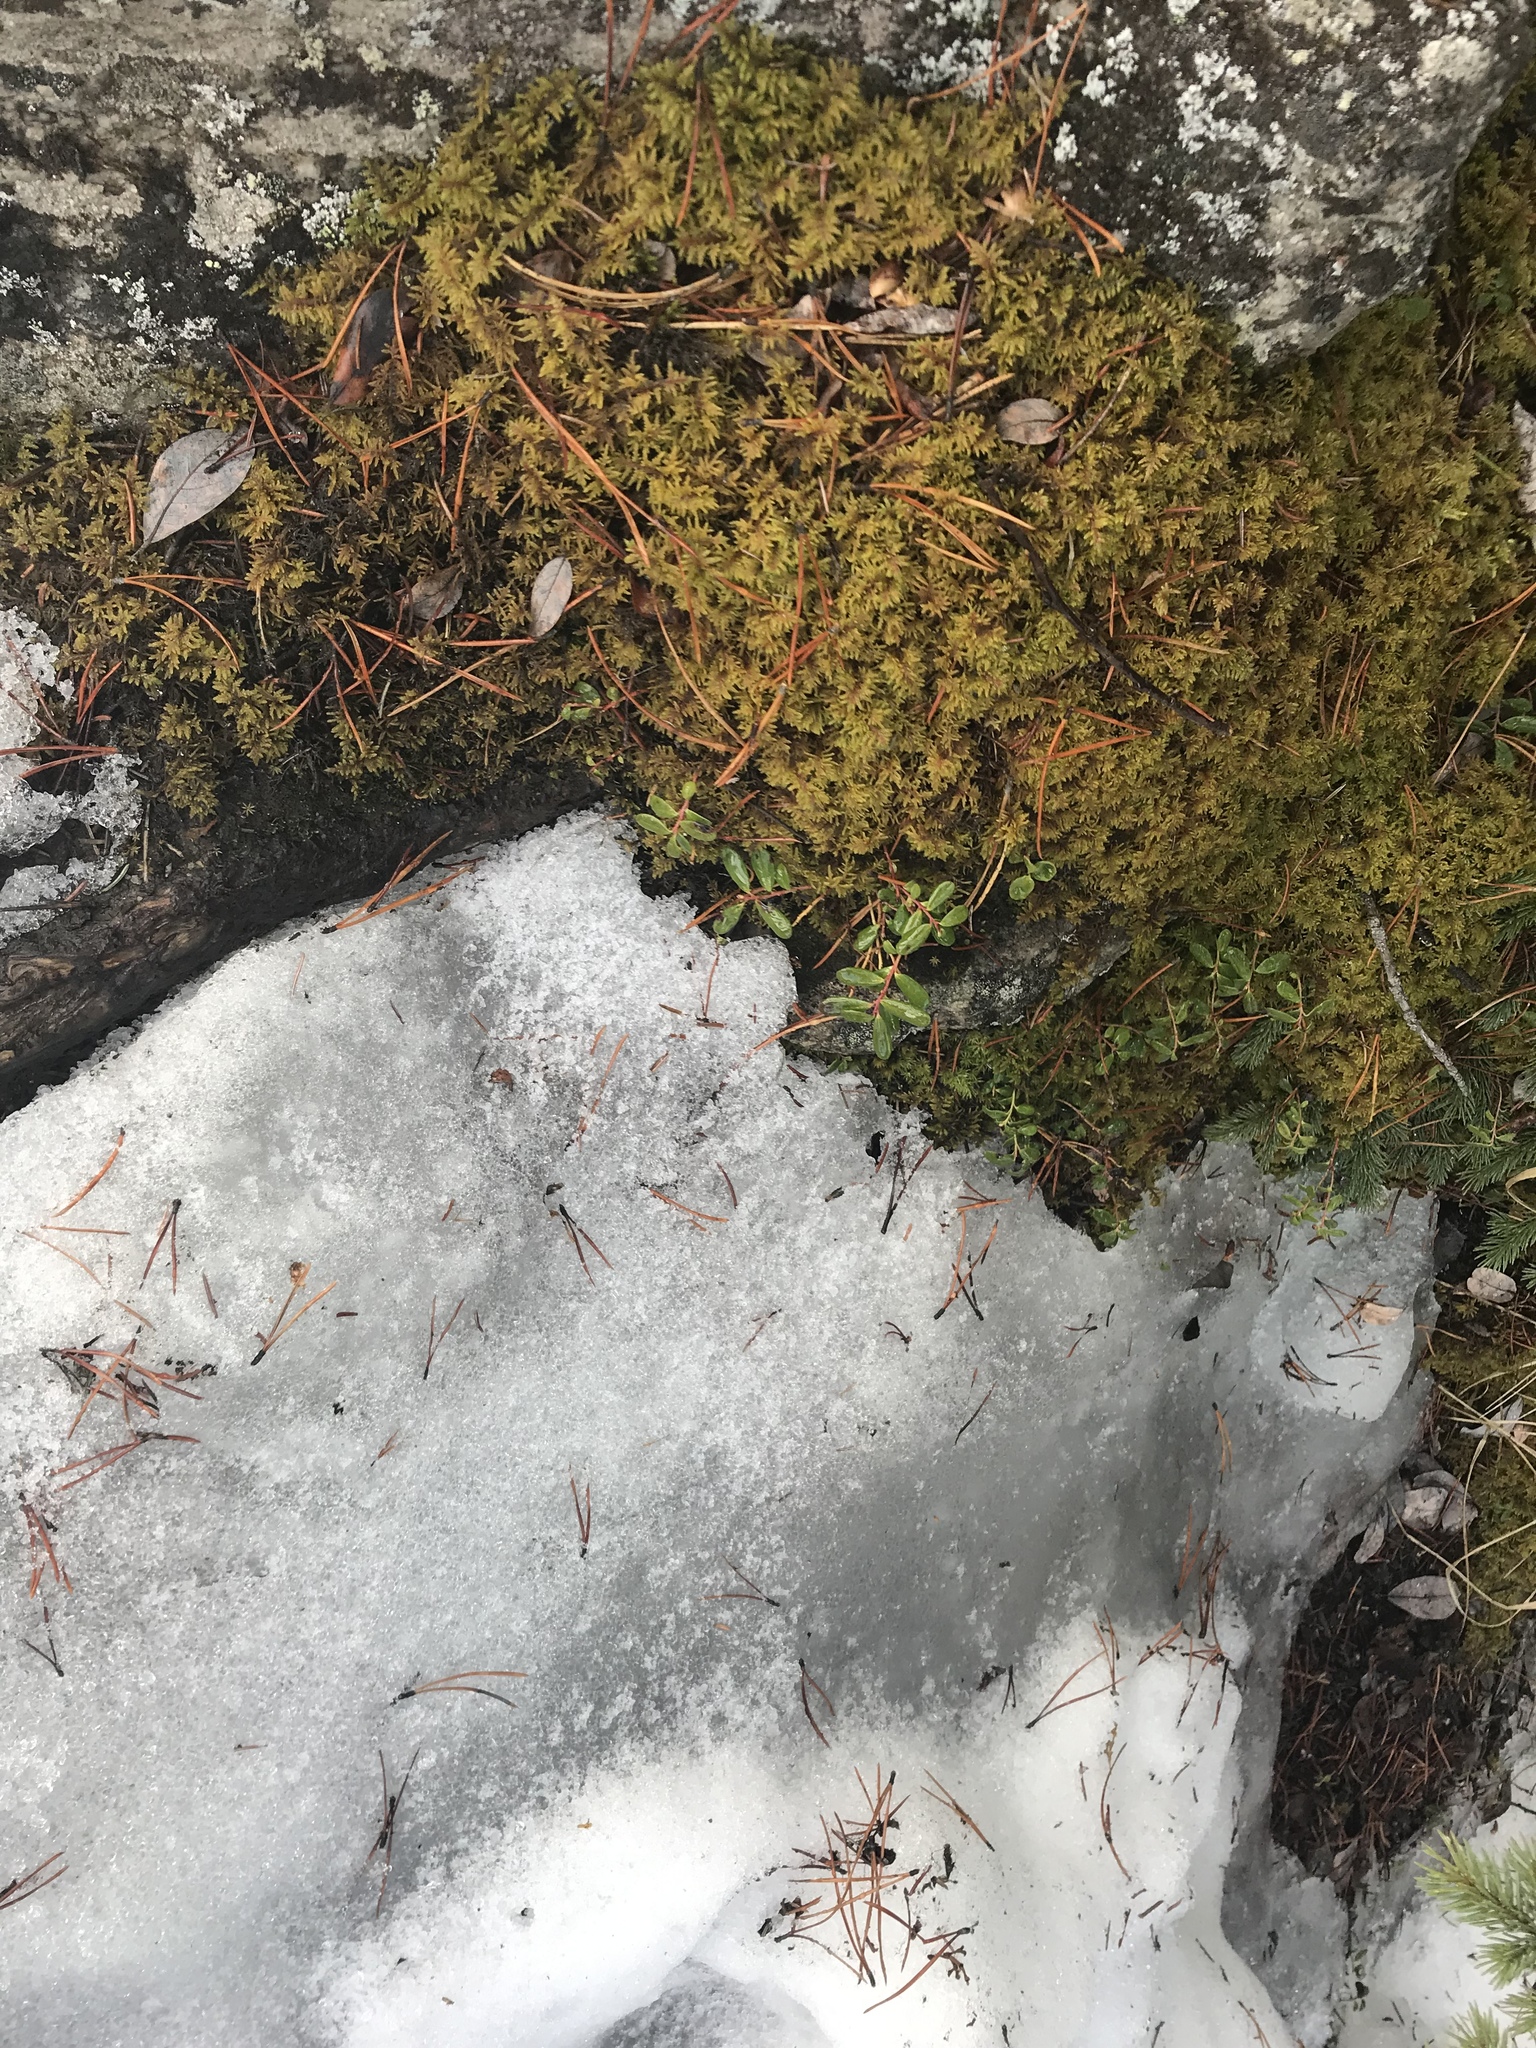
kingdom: Plantae
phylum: Tracheophyta
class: Magnoliopsida
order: Ericales
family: Ericaceae
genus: Vaccinium
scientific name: Vaccinium vitis-idaea
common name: Cowberry
